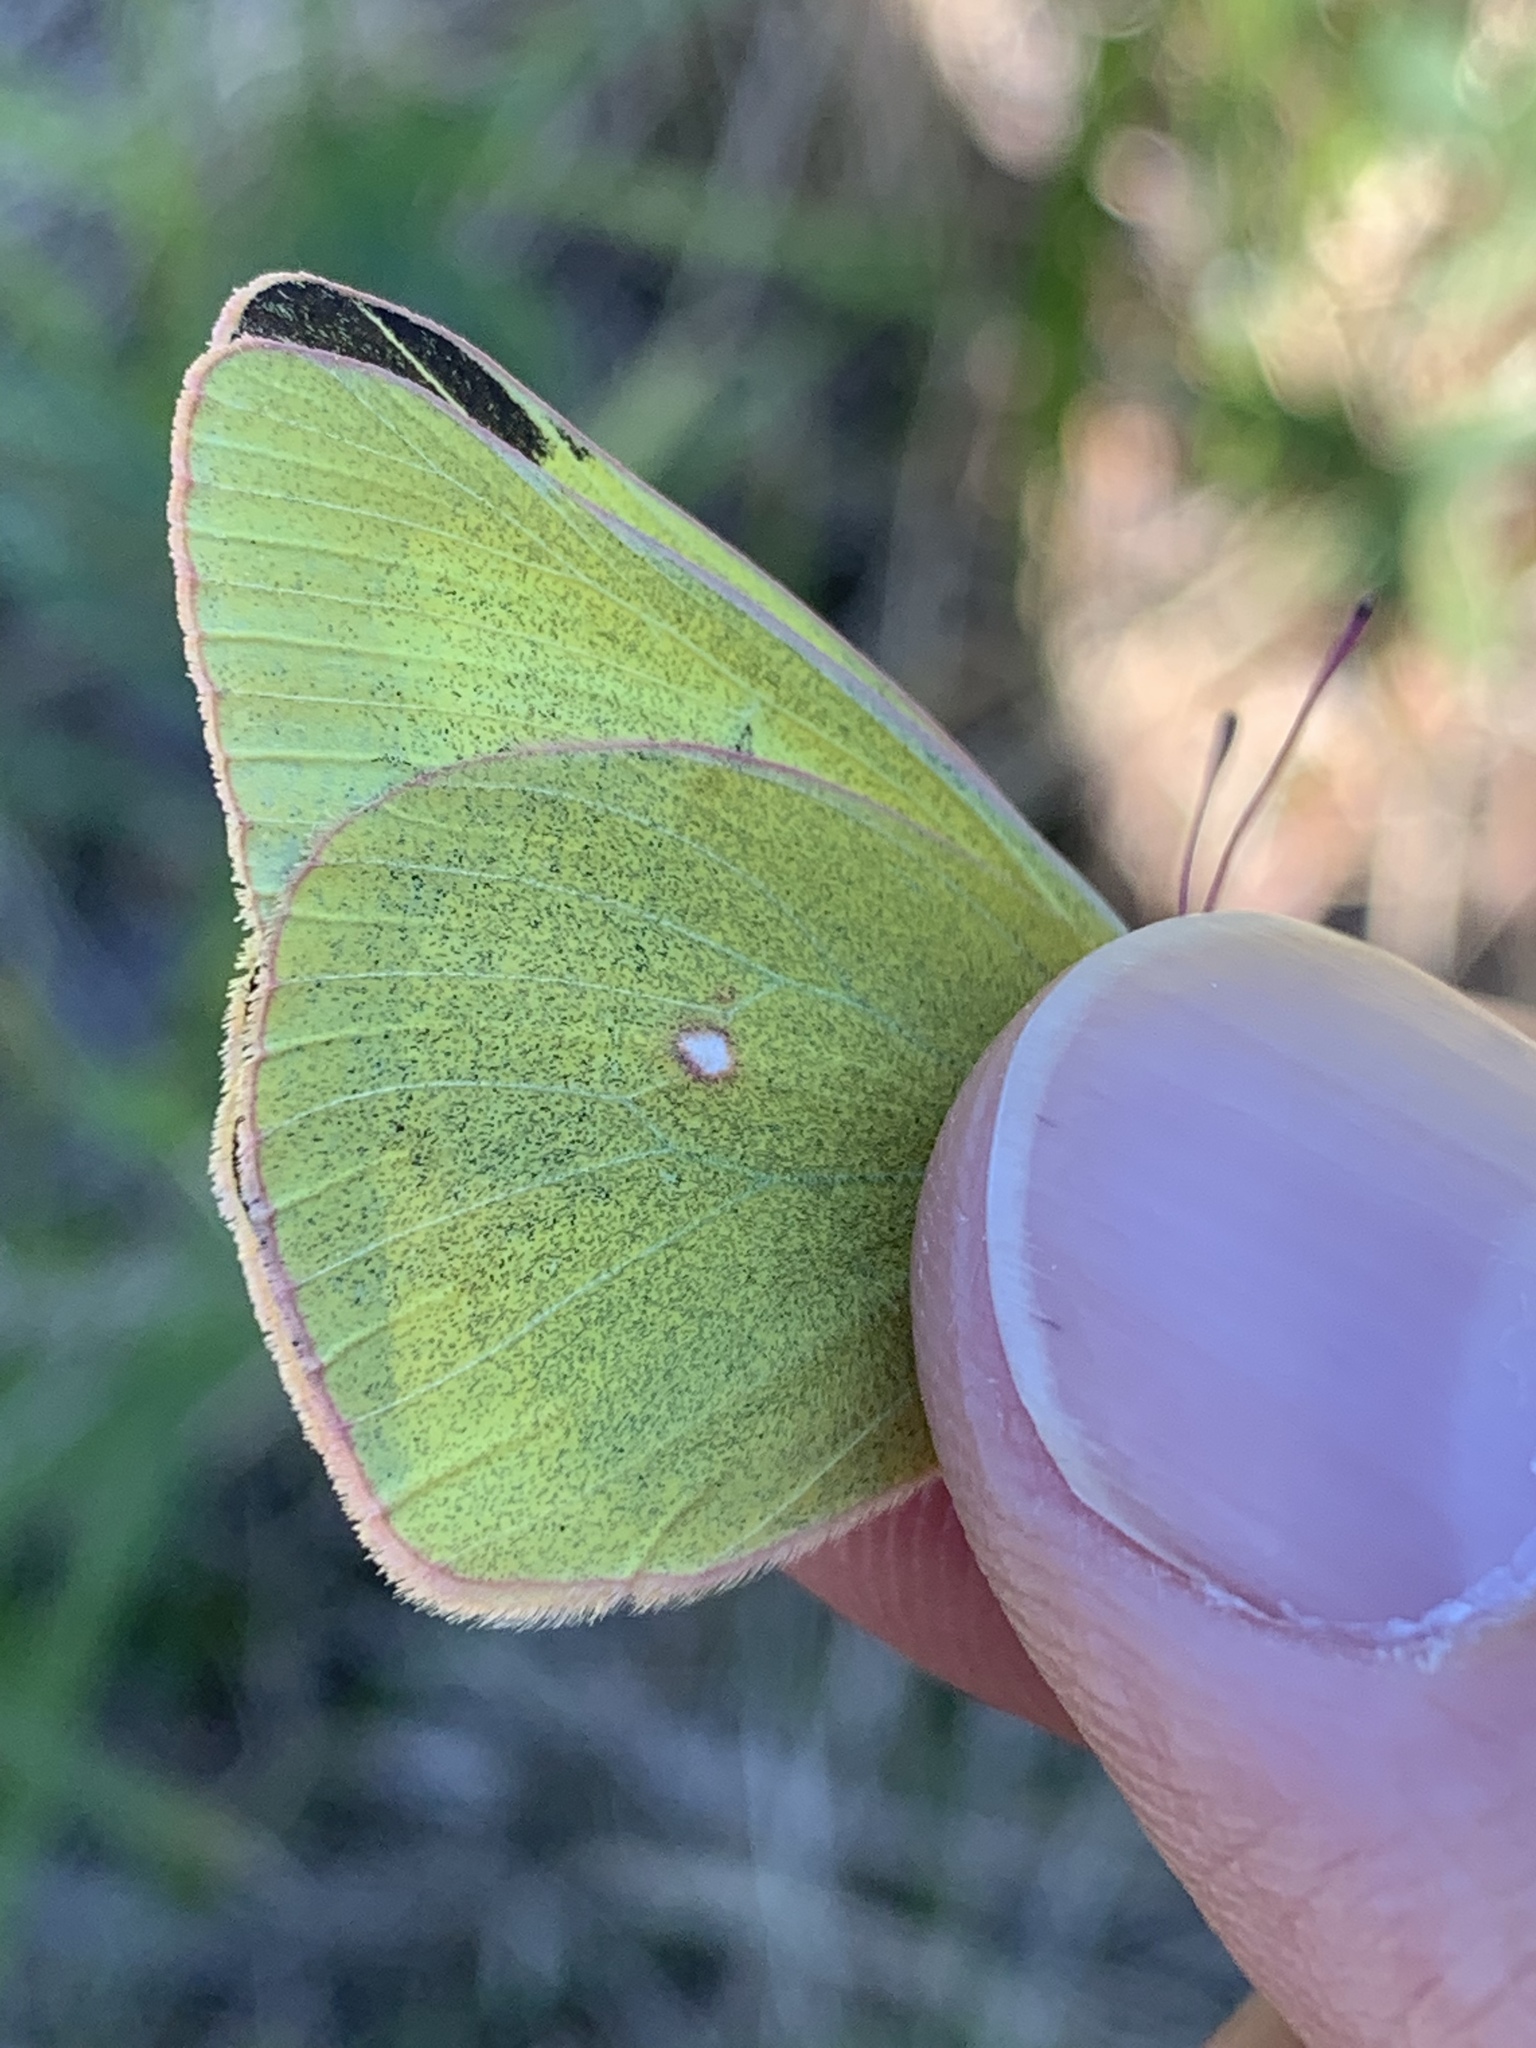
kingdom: Animalia
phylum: Arthropoda
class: Insecta
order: Lepidoptera
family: Pieridae
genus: Colias
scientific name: Colias interior
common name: Pink-edged sulphur
